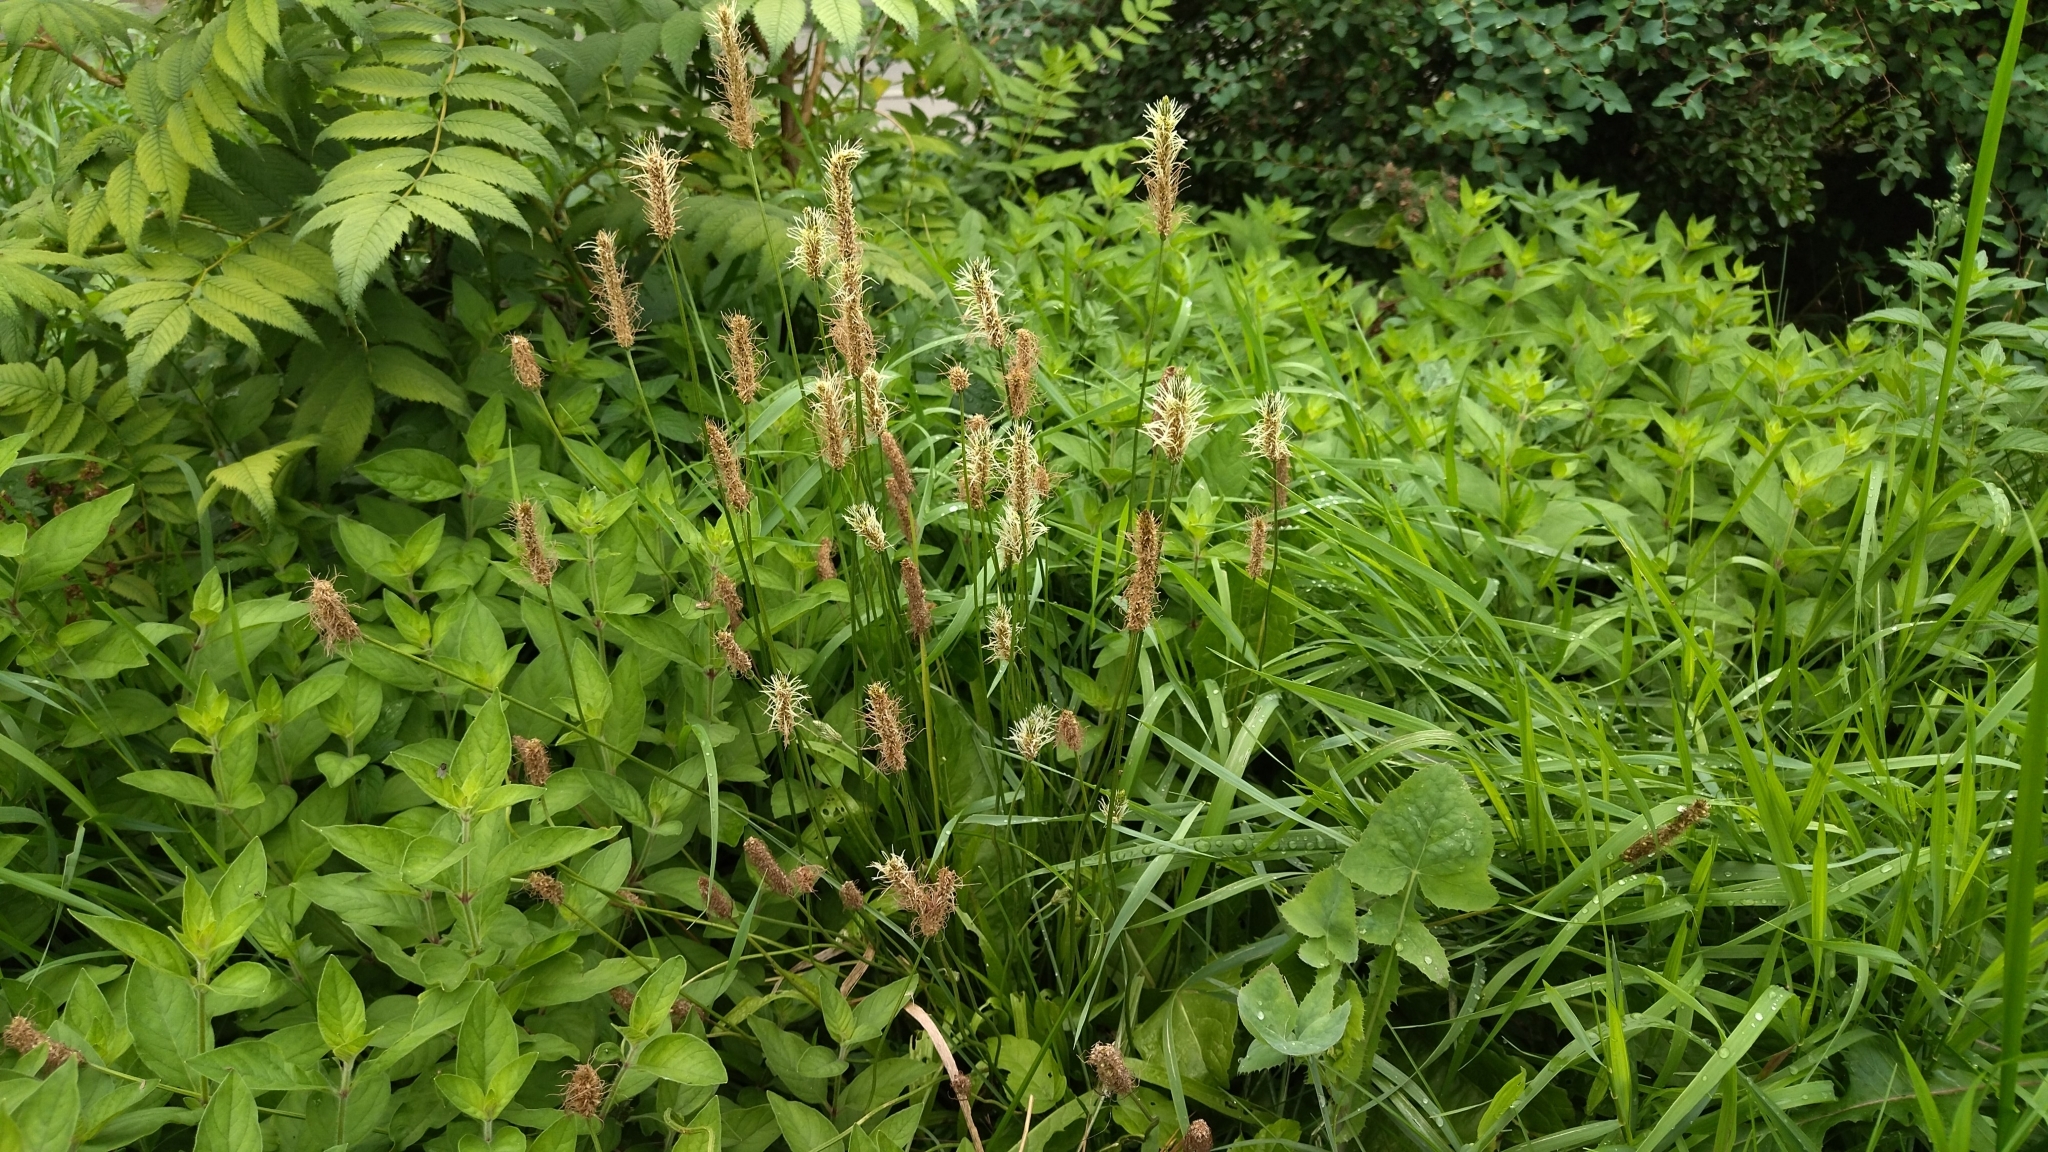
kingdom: Plantae
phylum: Tracheophyta
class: Magnoliopsida
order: Lamiales
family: Plantaginaceae
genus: Plantago
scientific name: Plantago lanceolata
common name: Ribwort plantain
